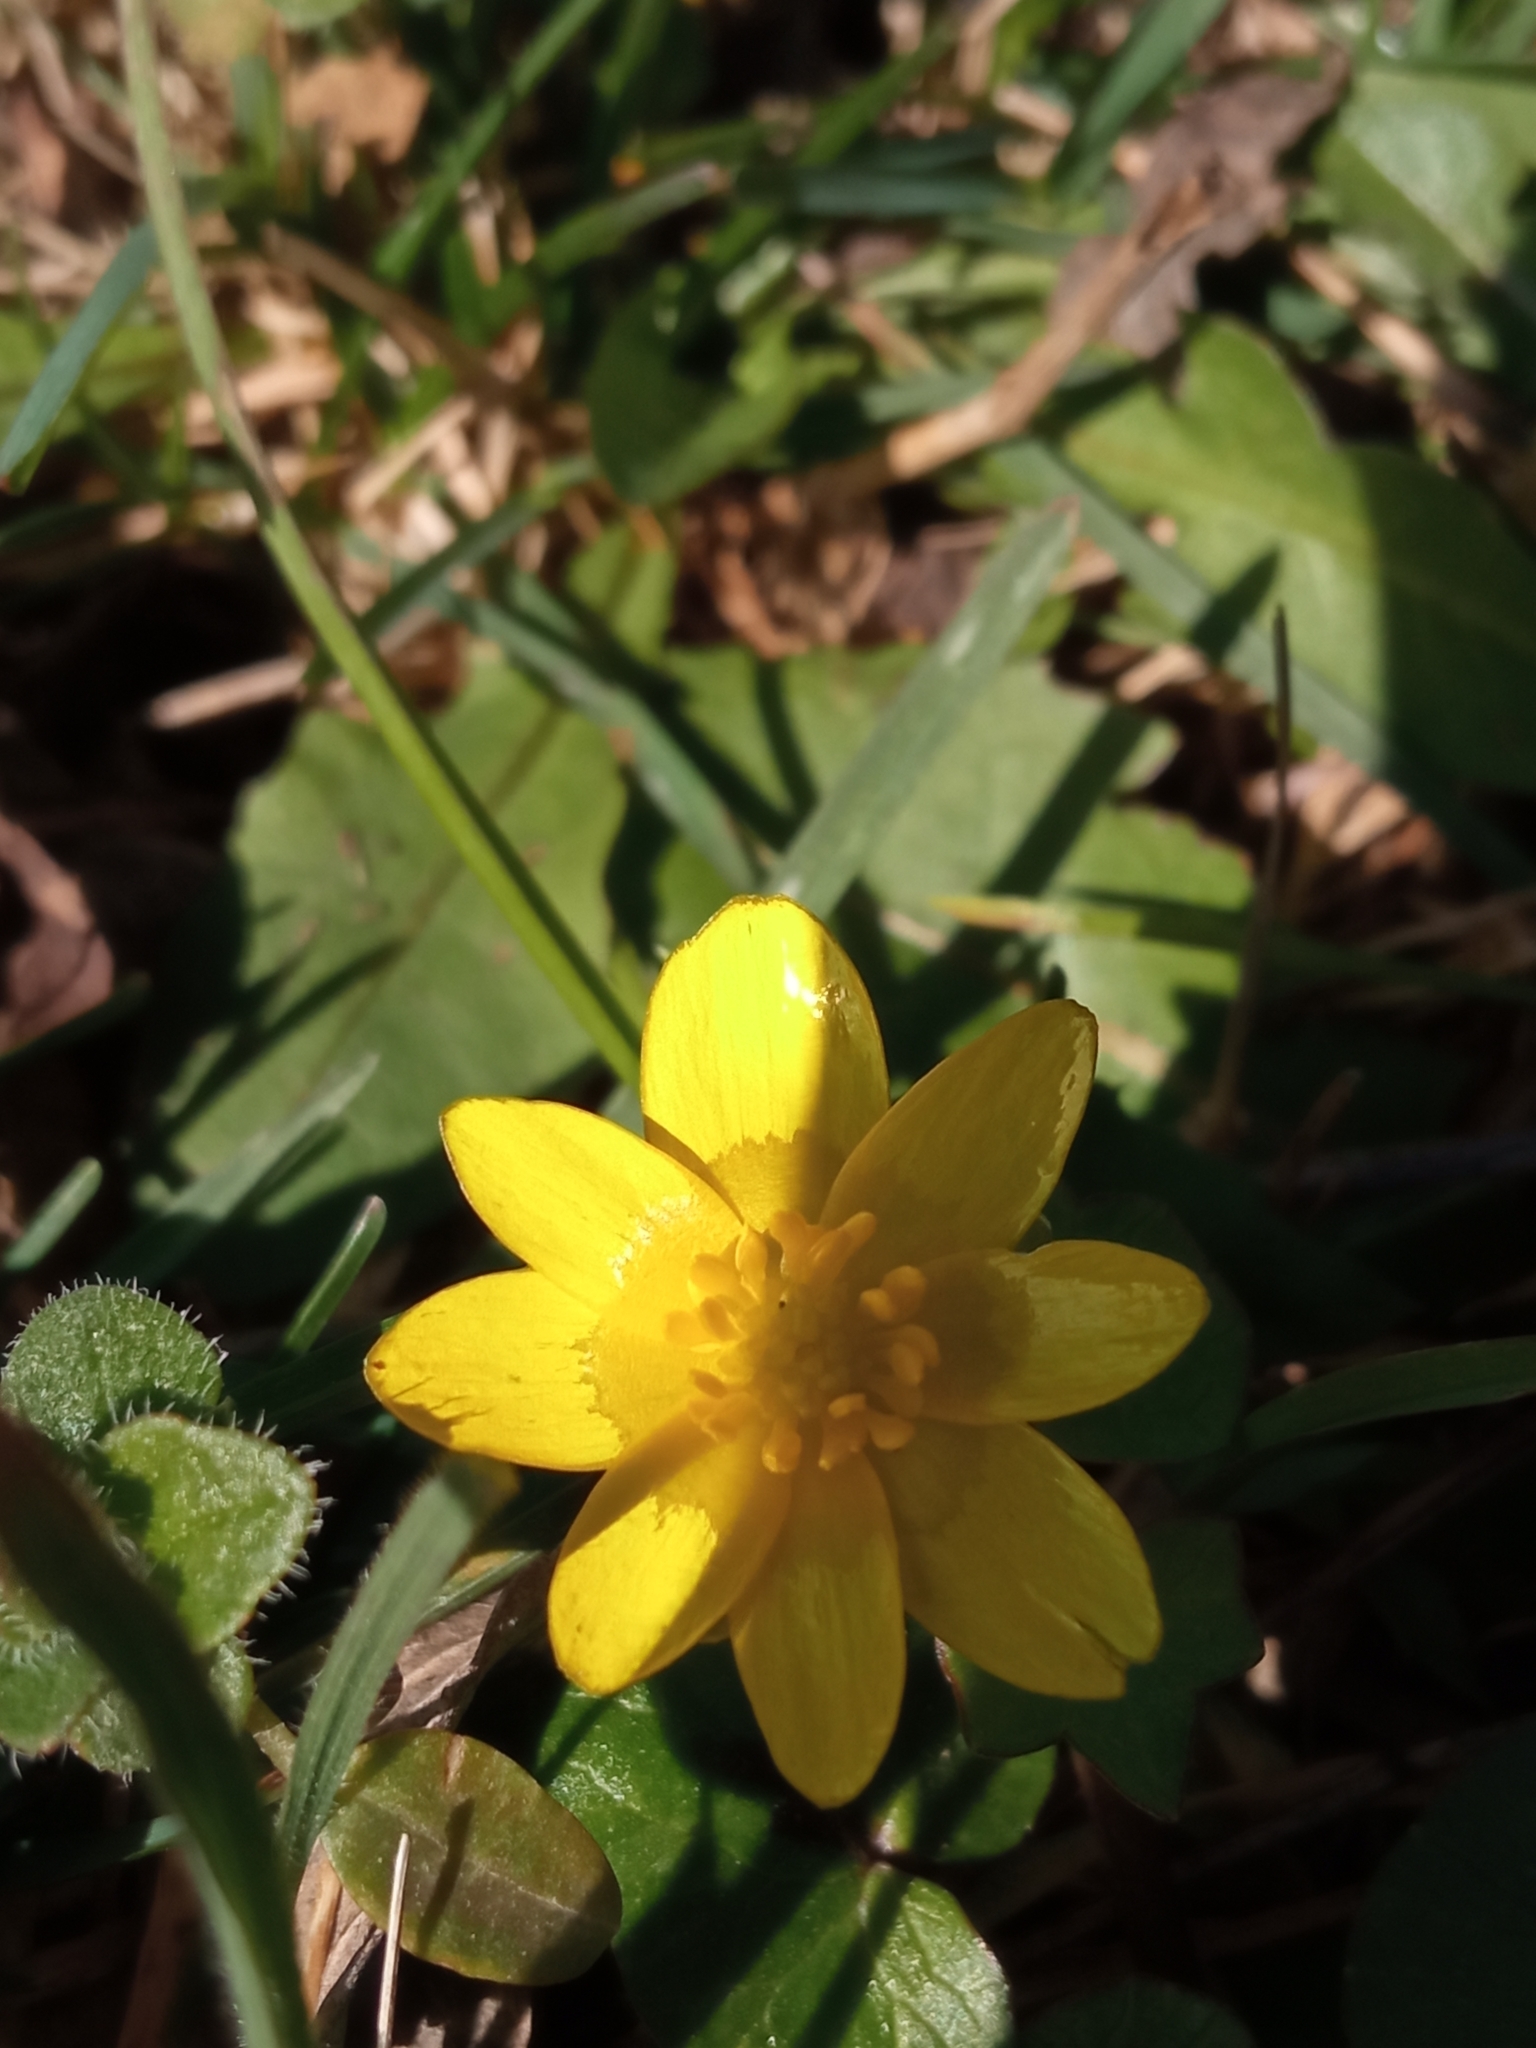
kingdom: Plantae
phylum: Tracheophyta
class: Magnoliopsida
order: Ranunculales
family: Ranunculaceae
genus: Ficaria
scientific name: Ficaria verna
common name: Lesser celandine
